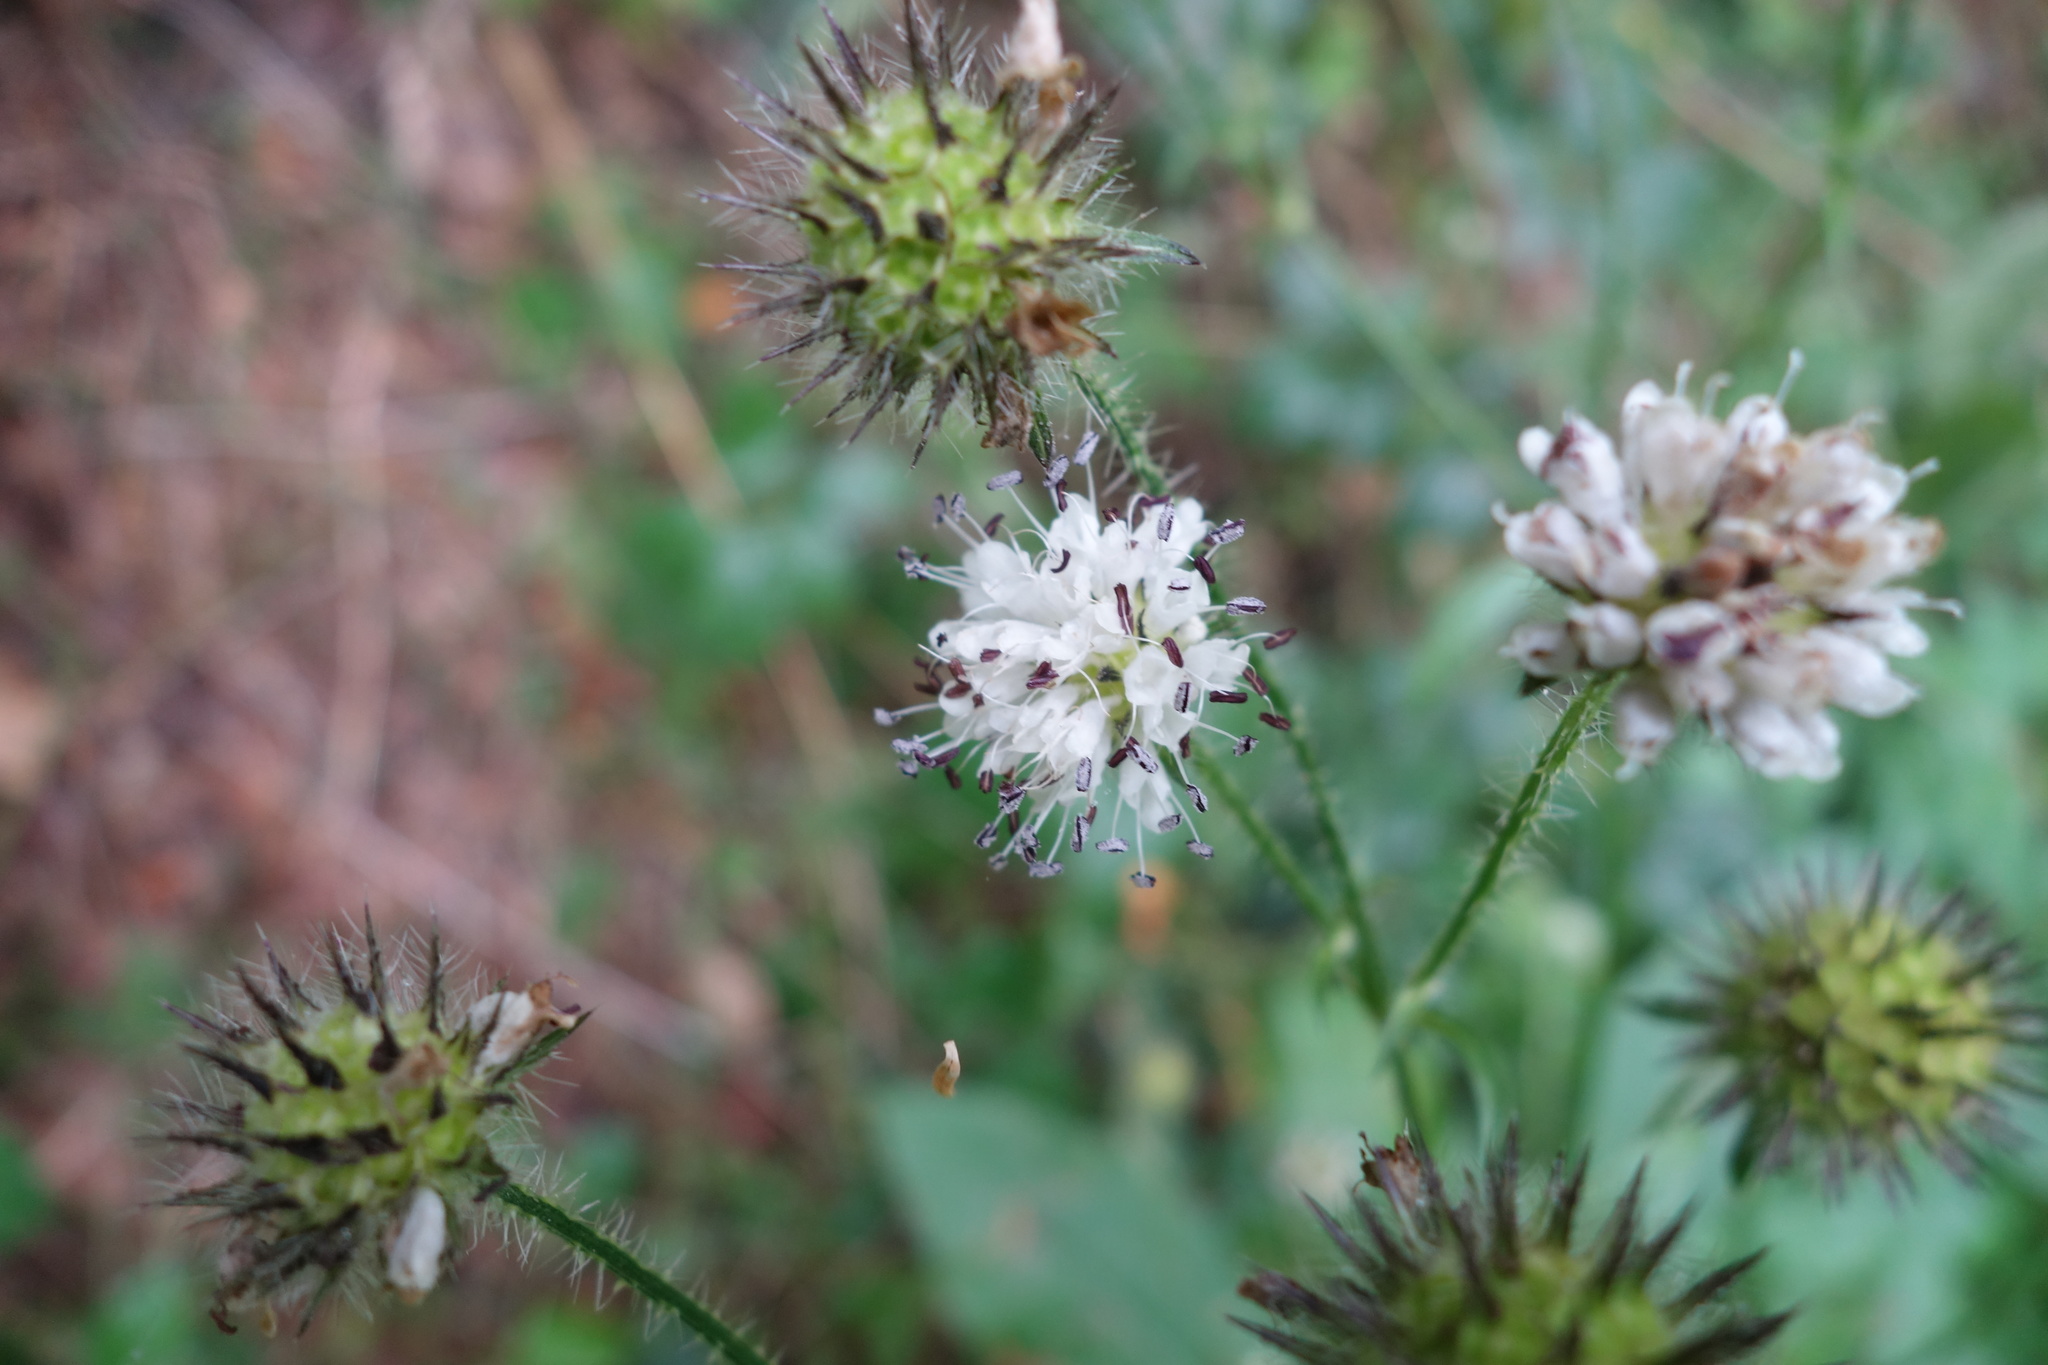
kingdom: Plantae
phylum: Tracheophyta
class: Magnoliopsida
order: Dipsacales
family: Caprifoliaceae
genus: Dipsacus
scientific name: Dipsacus pilosus
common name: Small teasel
